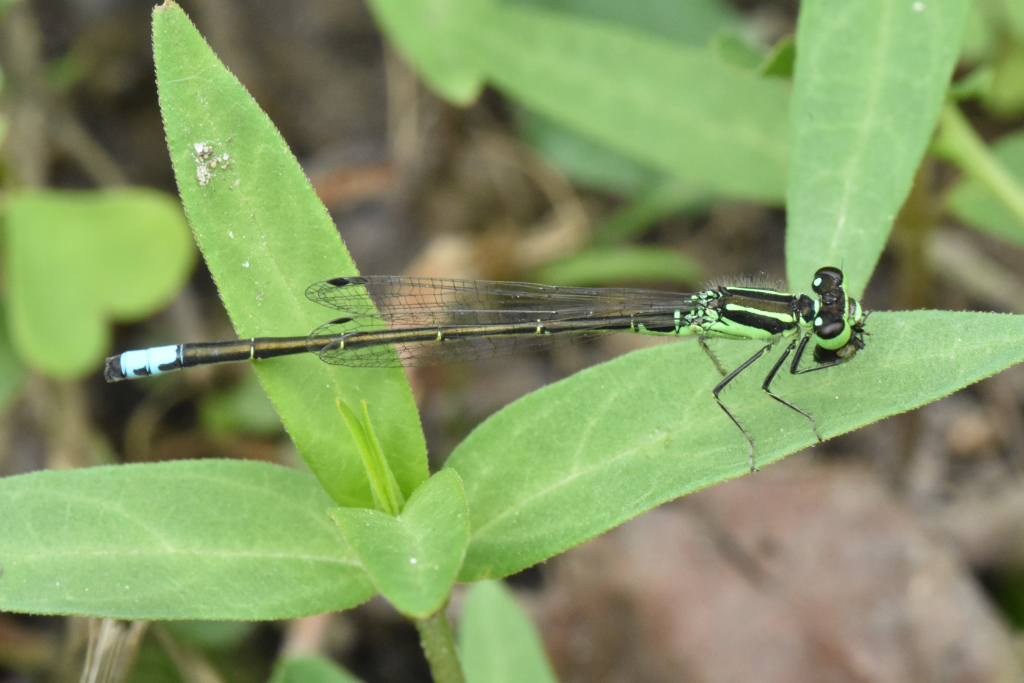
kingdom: Animalia
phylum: Arthropoda
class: Insecta
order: Odonata
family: Coenagrionidae
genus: Ischnura
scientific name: Ischnura verticalis
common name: Eastern forktail
